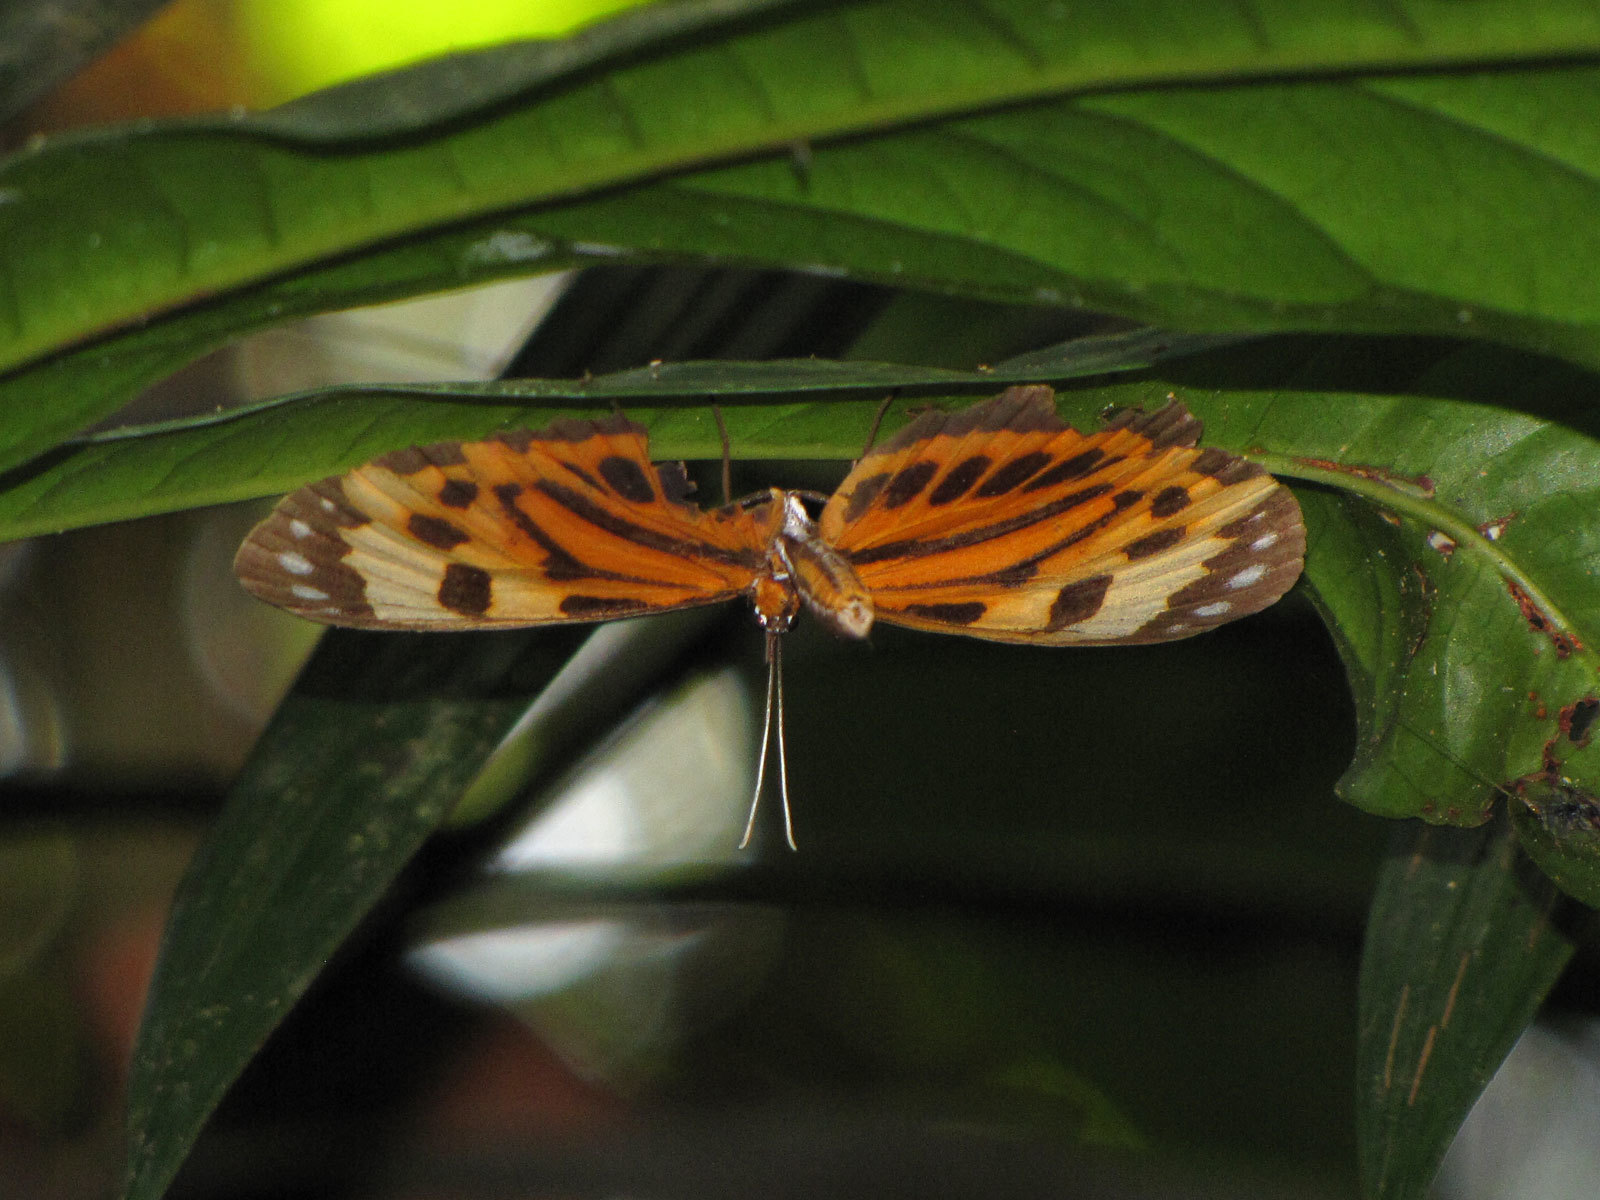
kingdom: Animalia
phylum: Arthropoda
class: Insecta
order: Lepidoptera
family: Riodinidae
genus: Stalachtis
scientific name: Stalachtis calliope
